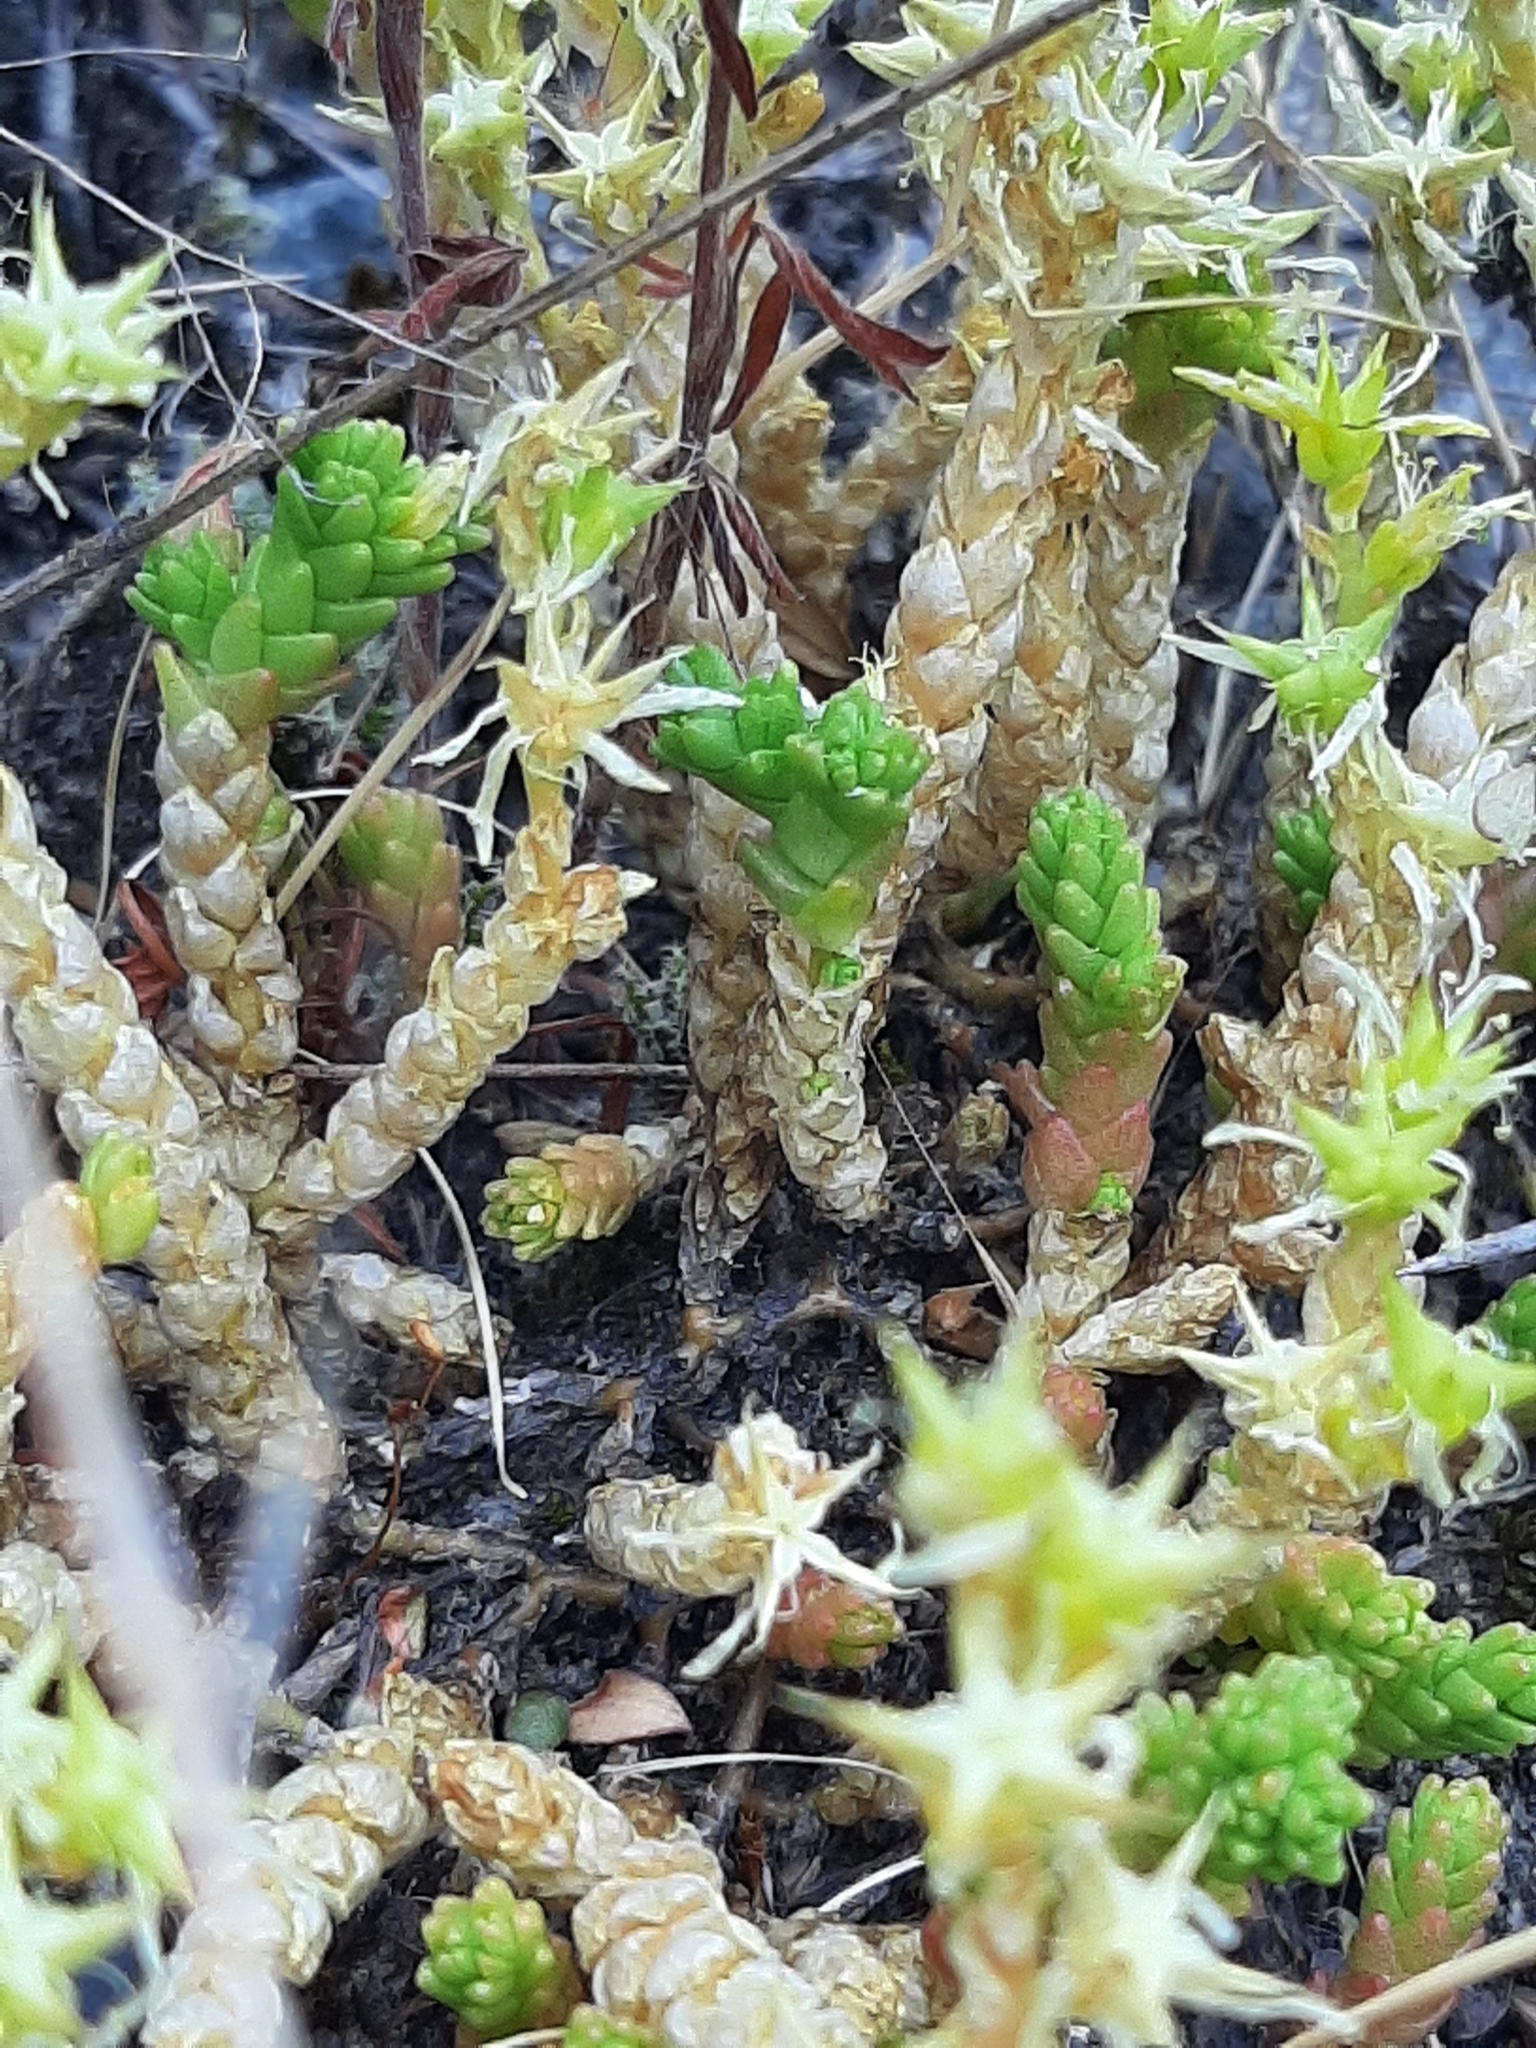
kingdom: Plantae
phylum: Tracheophyta
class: Magnoliopsida
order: Saxifragales
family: Crassulaceae
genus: Sedum
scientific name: Sedum acre
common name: Biting stonecrop
